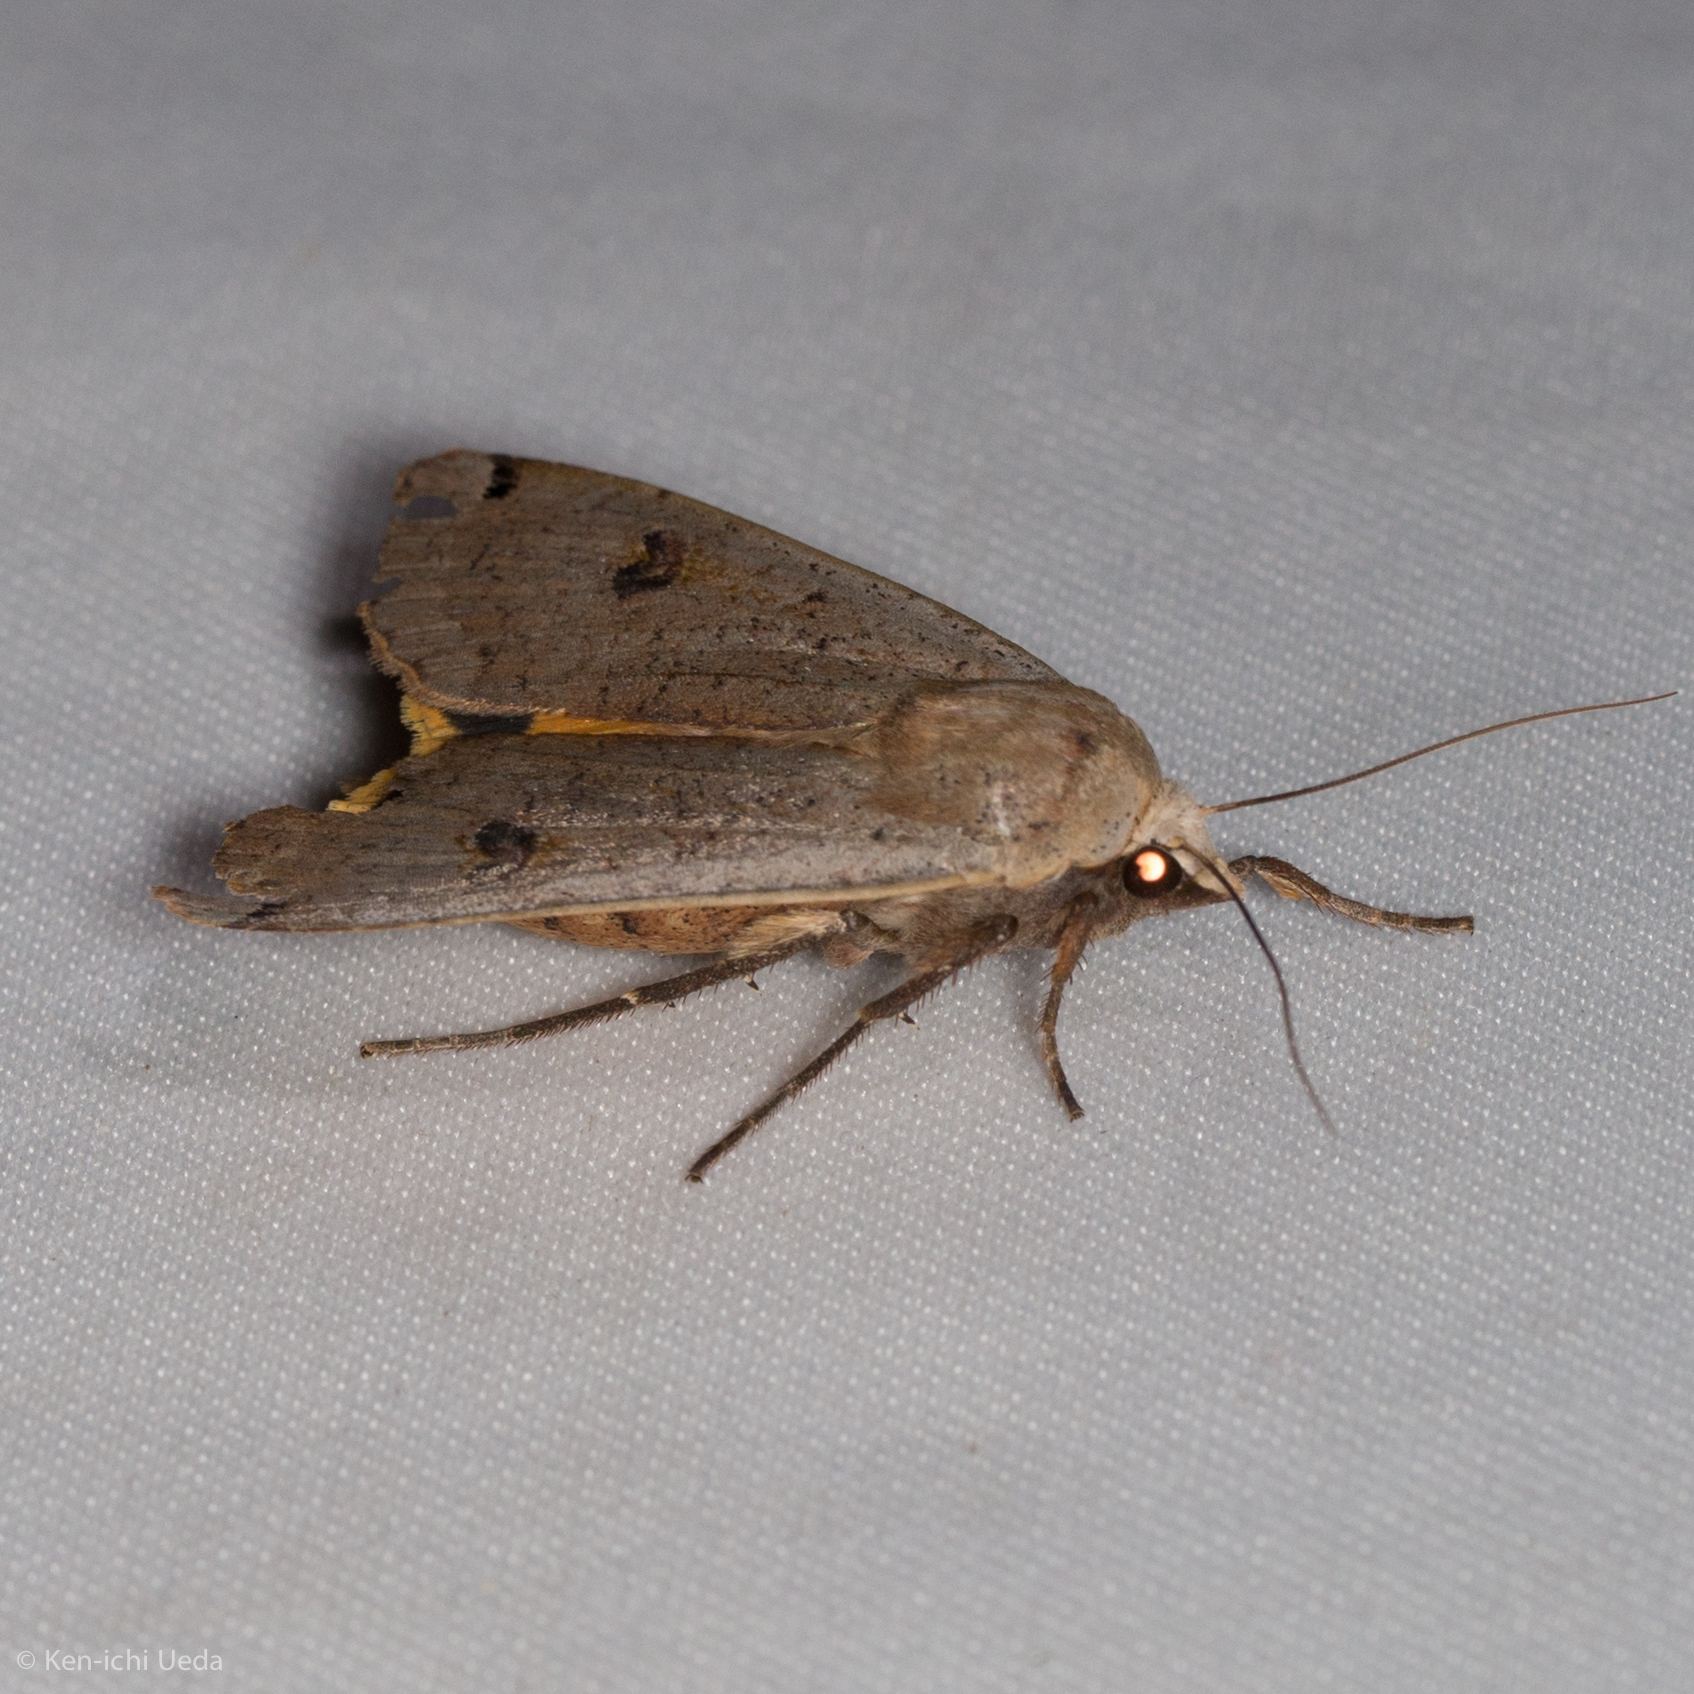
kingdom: Animalia
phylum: Arthropoda
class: Insecta
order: Lepidoptera
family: Noctuidae
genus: Noctua
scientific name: Noctua pronuba
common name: Large yellow underwing
